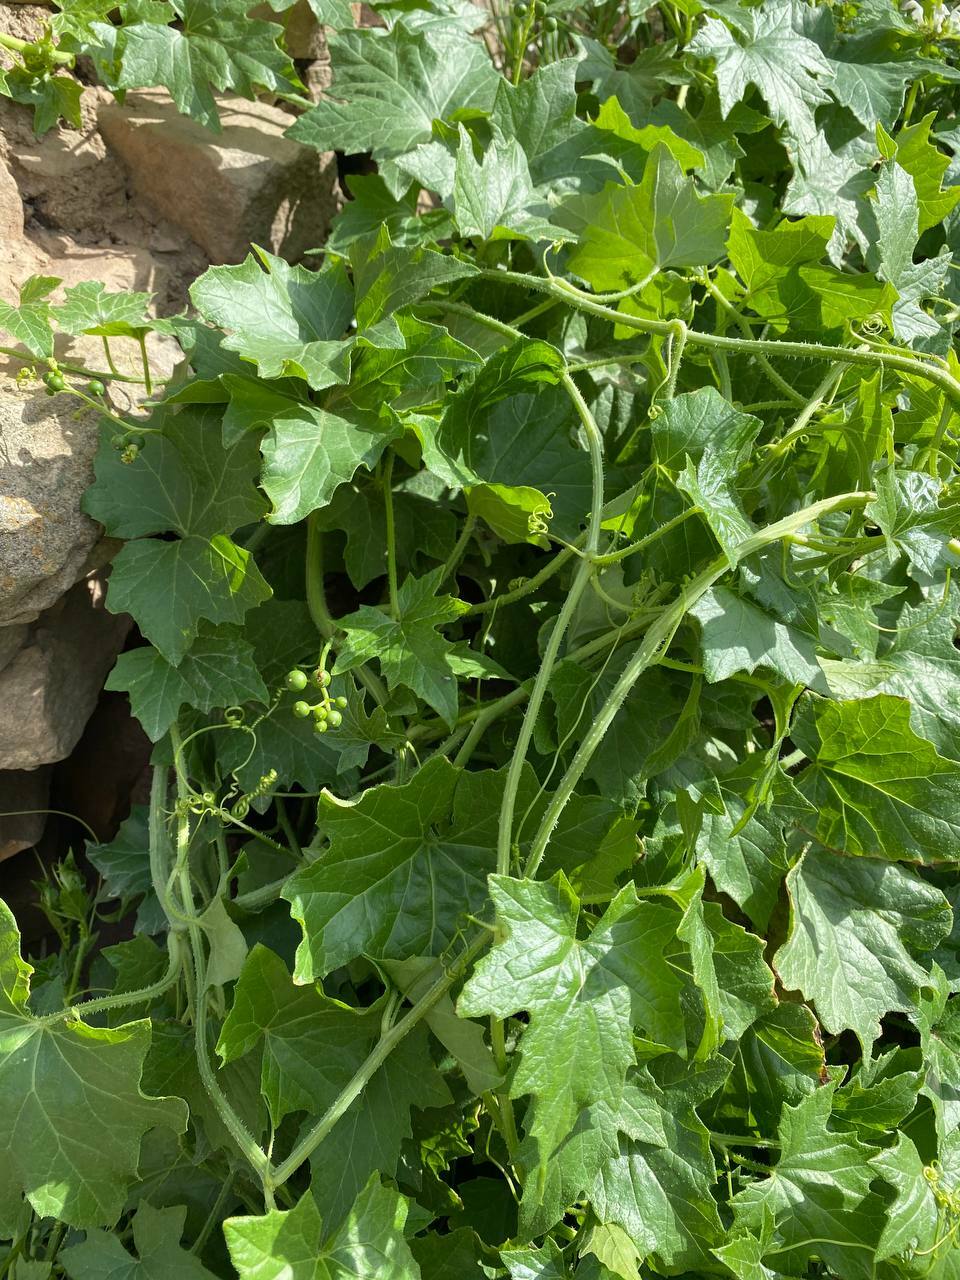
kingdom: Plantae
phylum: Tracheophyta
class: Magnoliopsida
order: Cucurbitales
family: Cucurbitaceae
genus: Bryonia
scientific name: Bryonia alba
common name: White bryony
